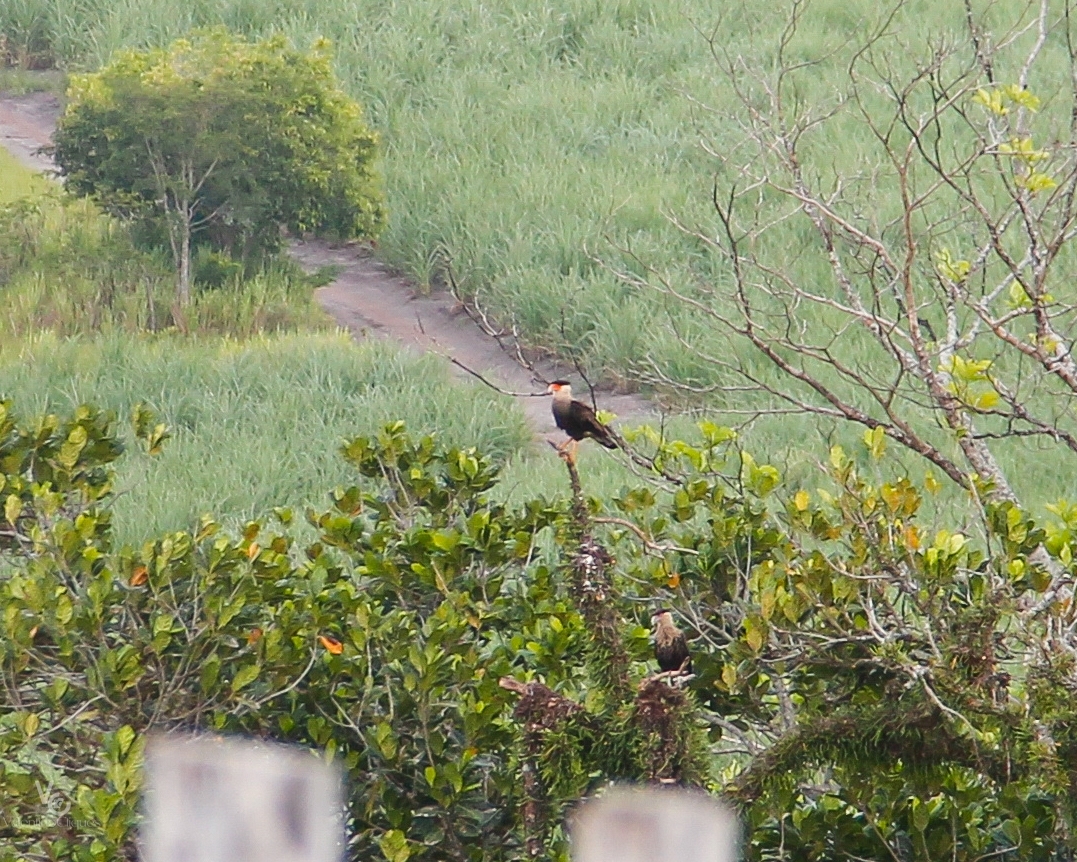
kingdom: Animalia
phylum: Chordata
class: Aves
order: Falconiformes
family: Falconidae
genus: Caracara
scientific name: Caracara plancus
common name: Southern caracara
